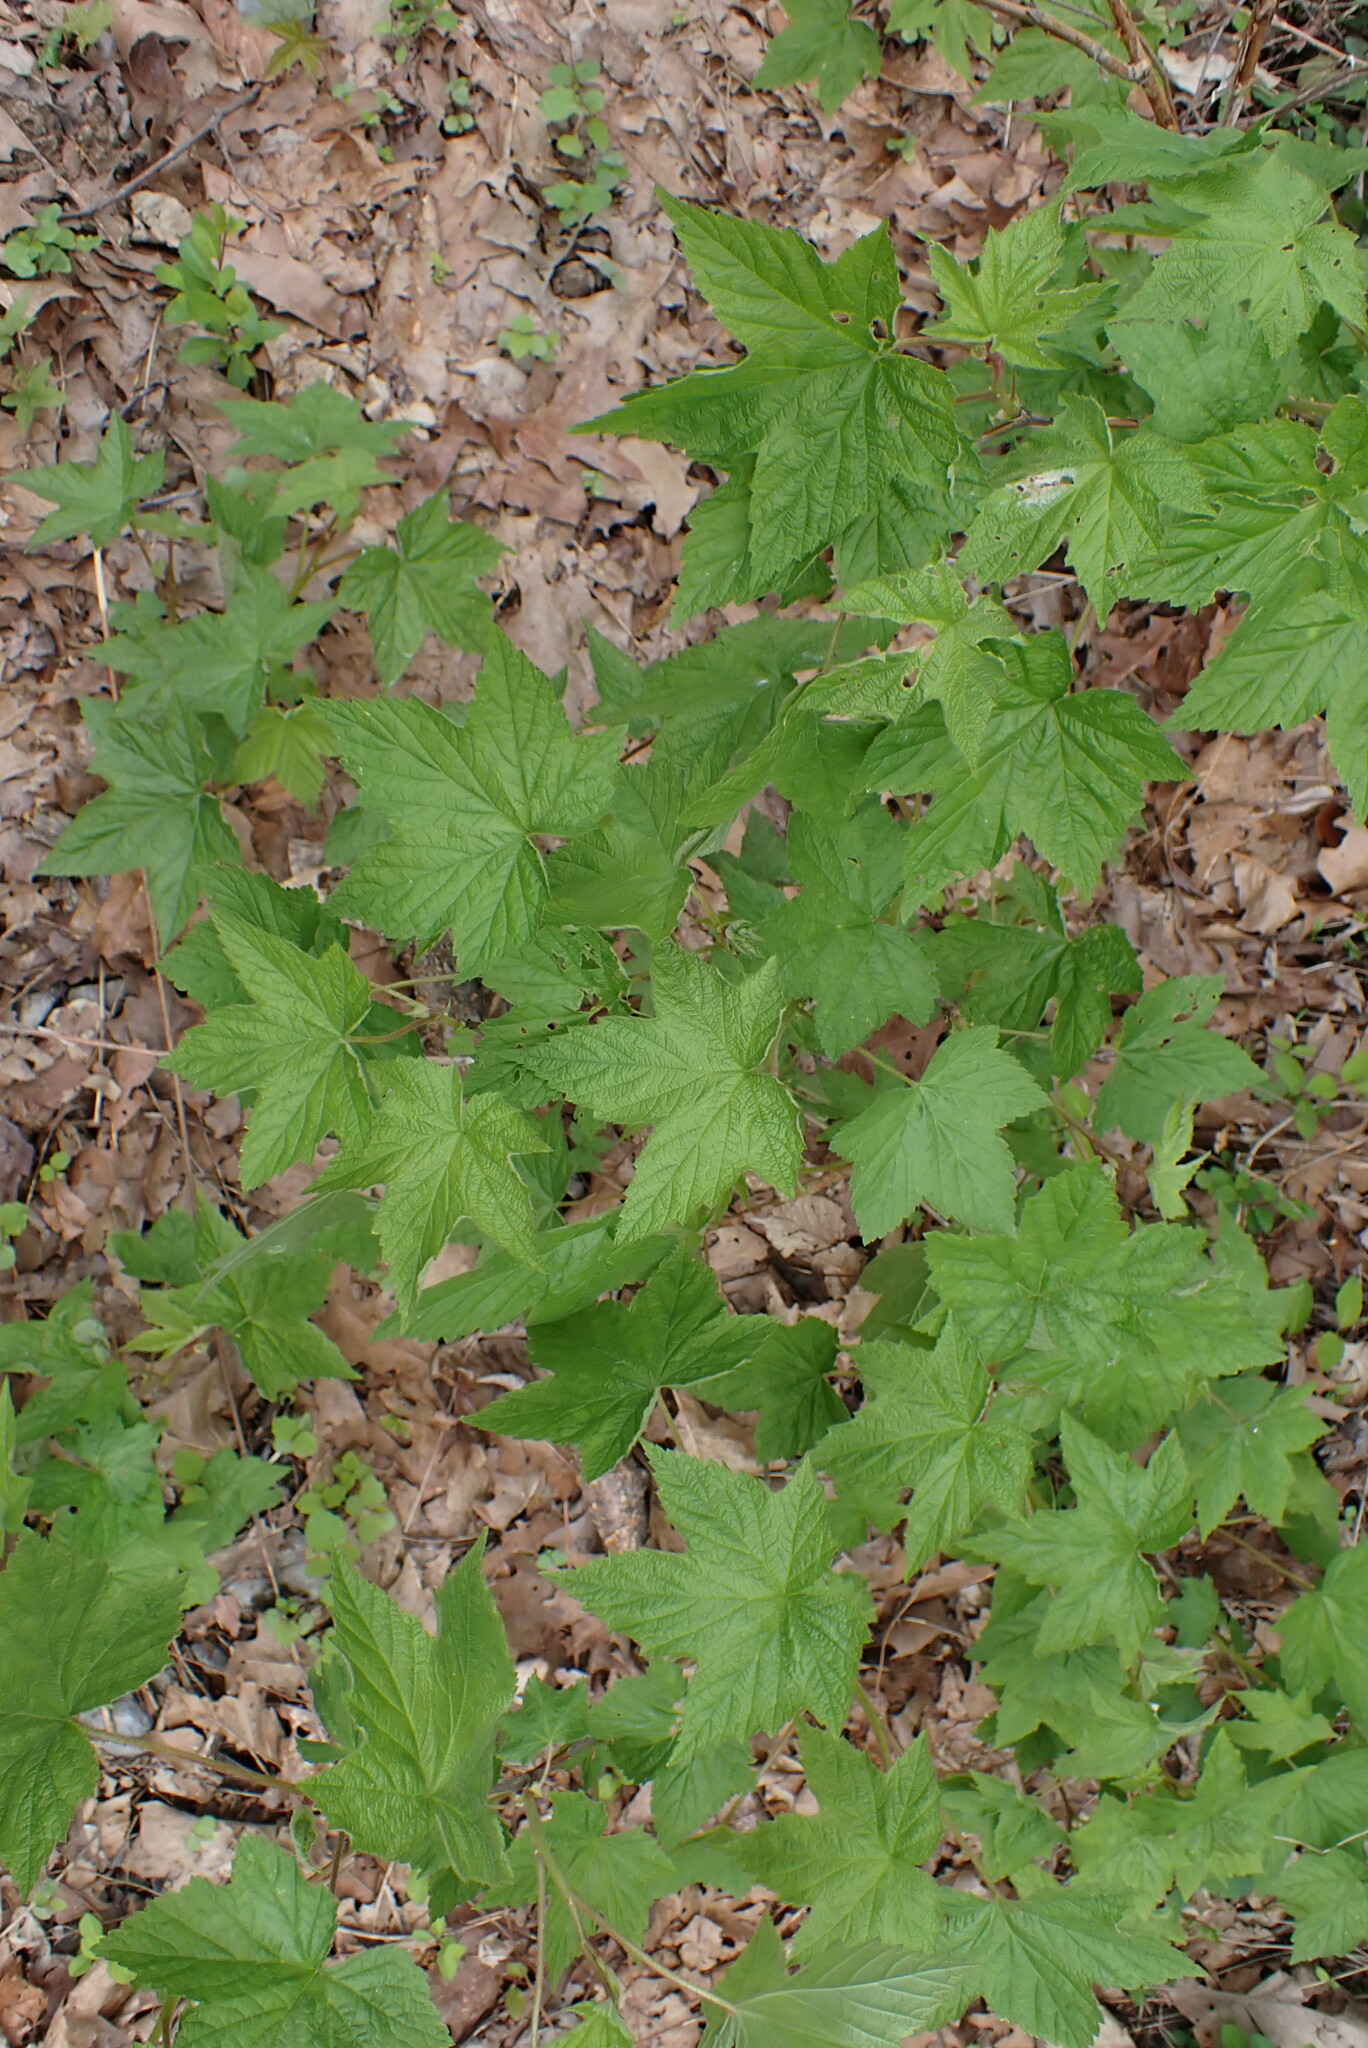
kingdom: Plantae
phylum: Tracheophyta
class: Magnoliopsida
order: Rosales
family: Rosaceae
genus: Rubus
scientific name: Rubus odoratus
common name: Purple-flowered raspberry
